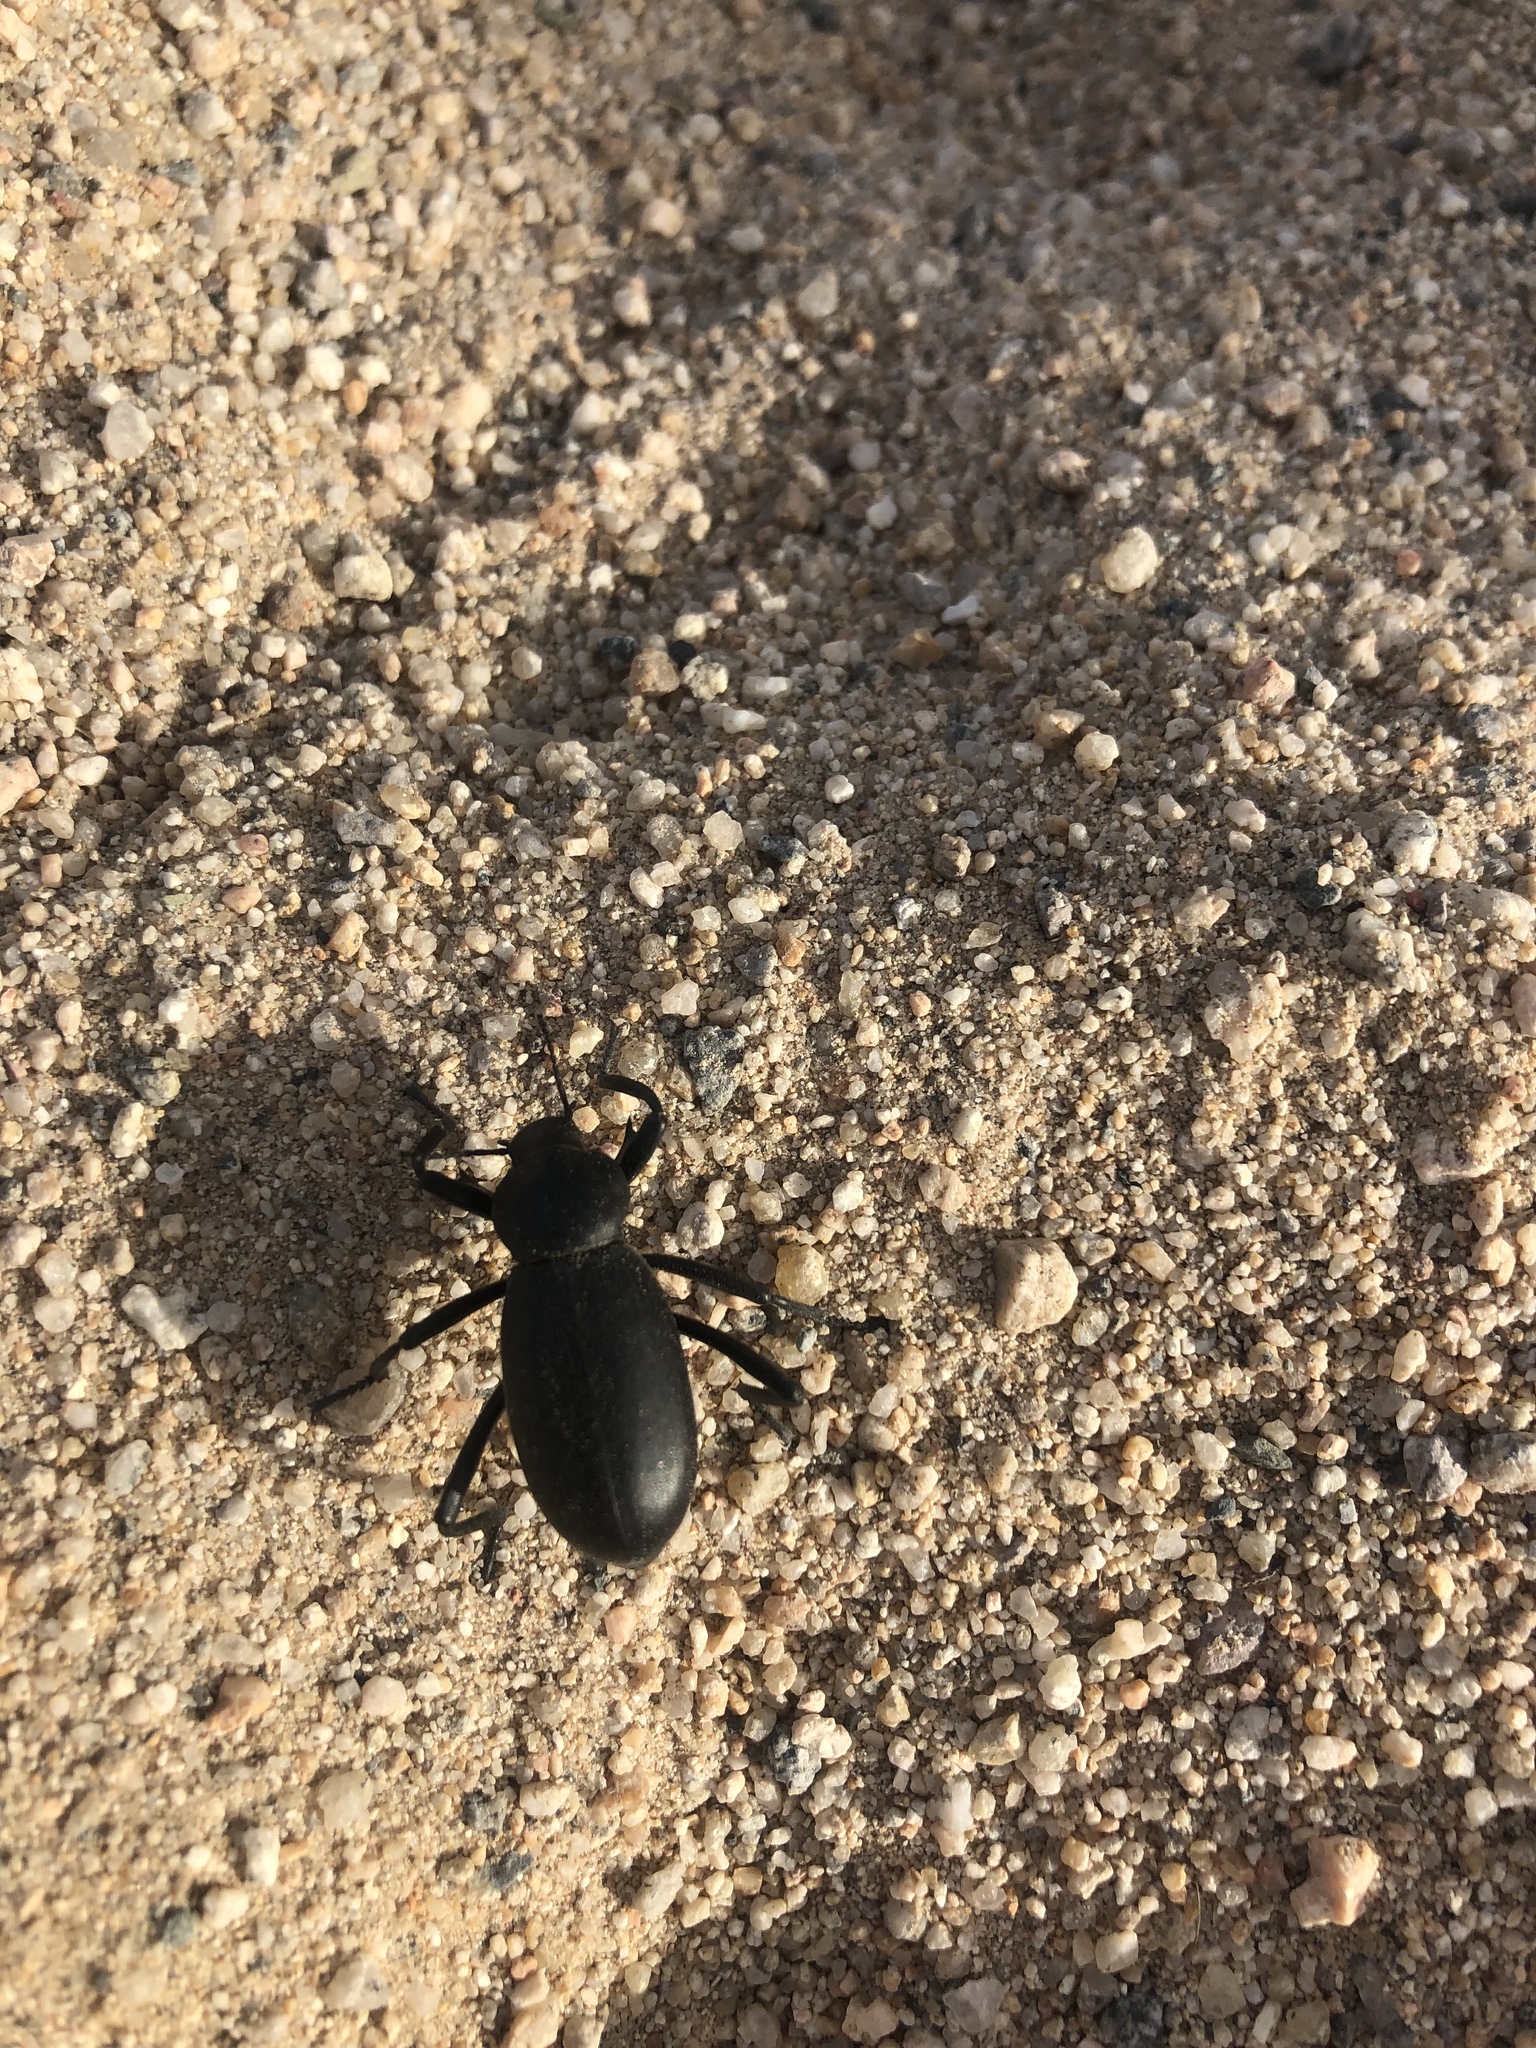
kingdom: Animalia
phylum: Arthropoda
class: Insecta
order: Coleoptera
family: Tenebrionidae
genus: Eleodes
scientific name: Eleodes armata
